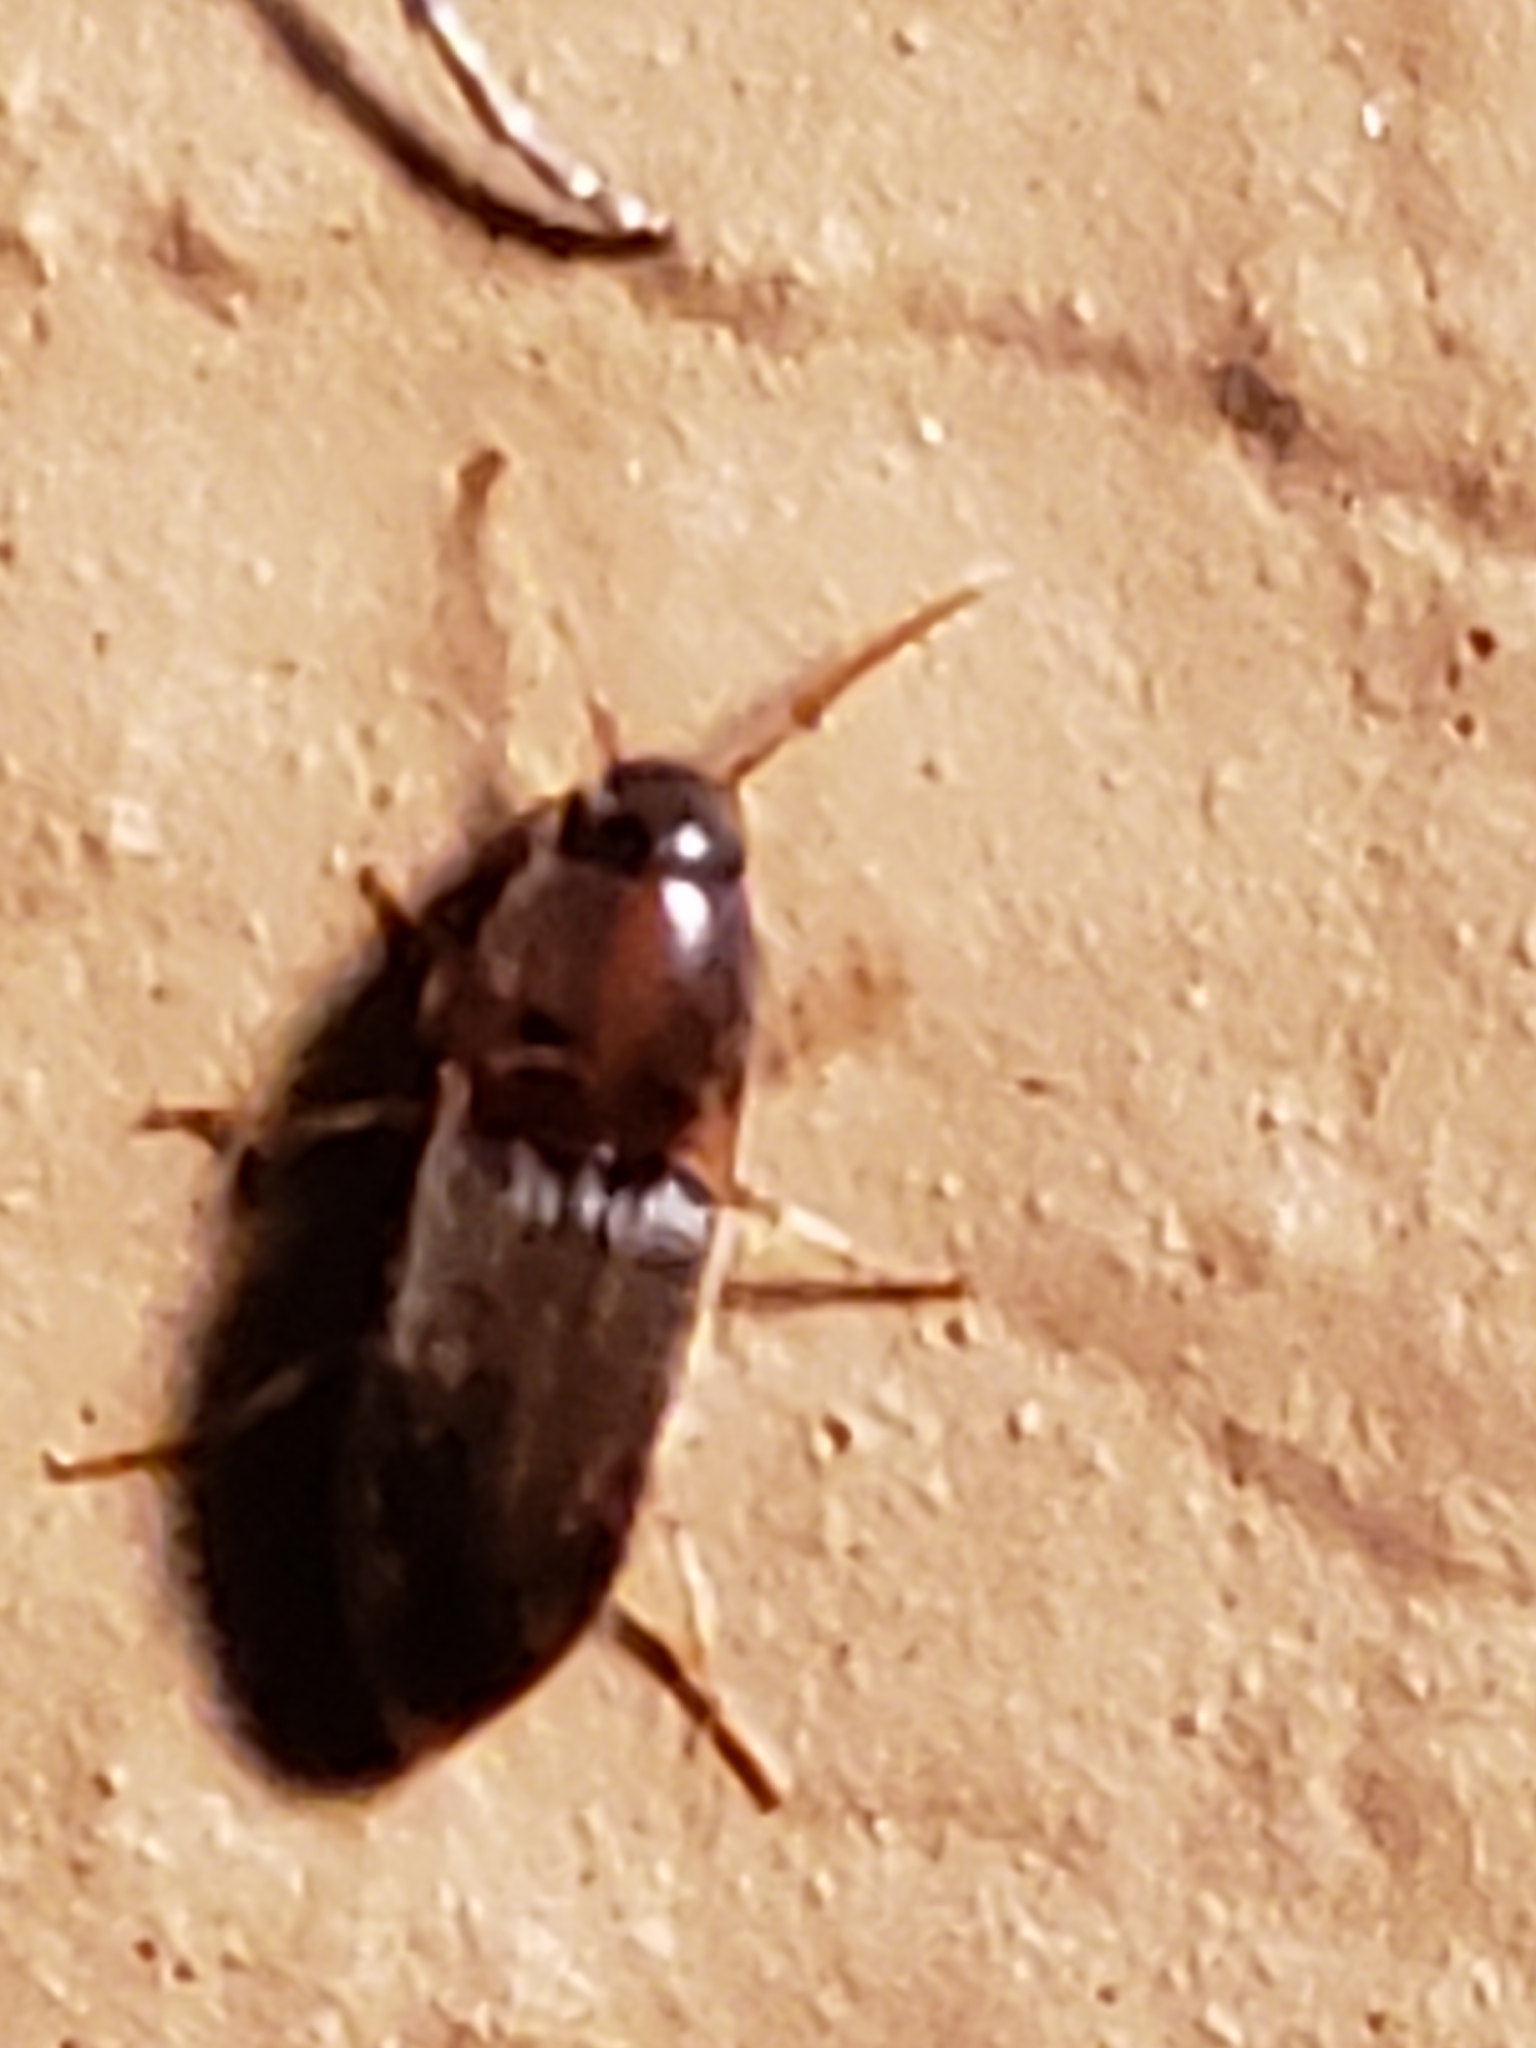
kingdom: Animalia
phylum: Arthropoda
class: Insecta
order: Coleoptera
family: Elateridae
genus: Monocrepidius
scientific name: Monocrepidius bellus
